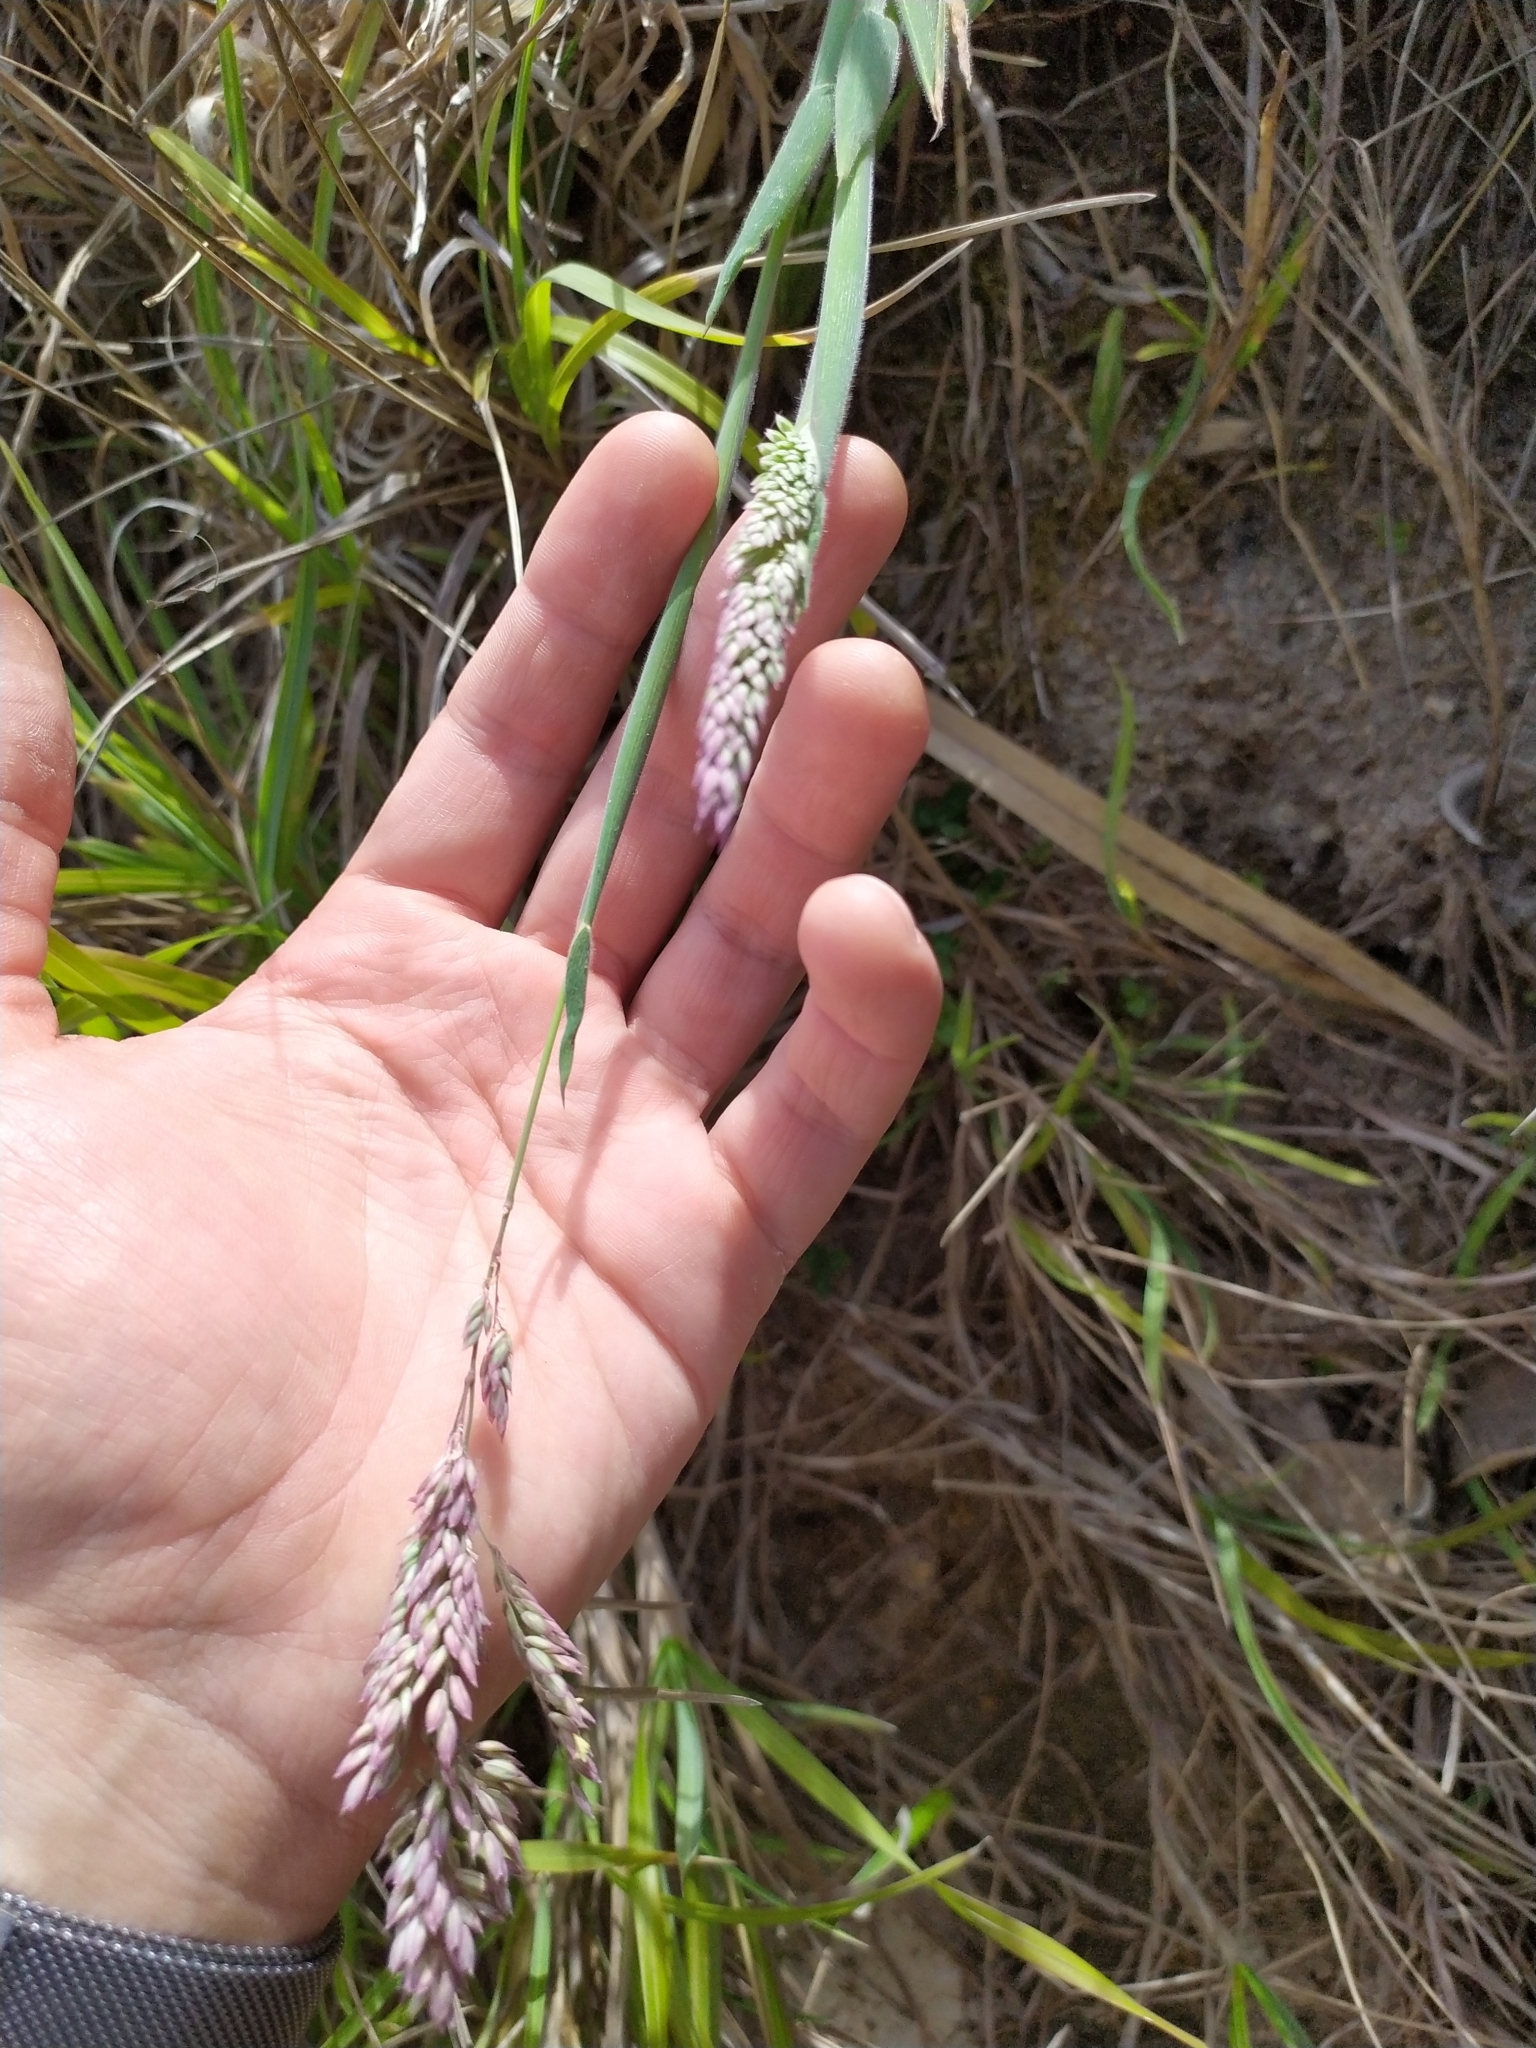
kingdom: Plantae
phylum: Tracheophyta
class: Liliopsida
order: Poales
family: Poaceae
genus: Holcus
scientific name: Holcus lanatus
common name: Yorkshire-fog
